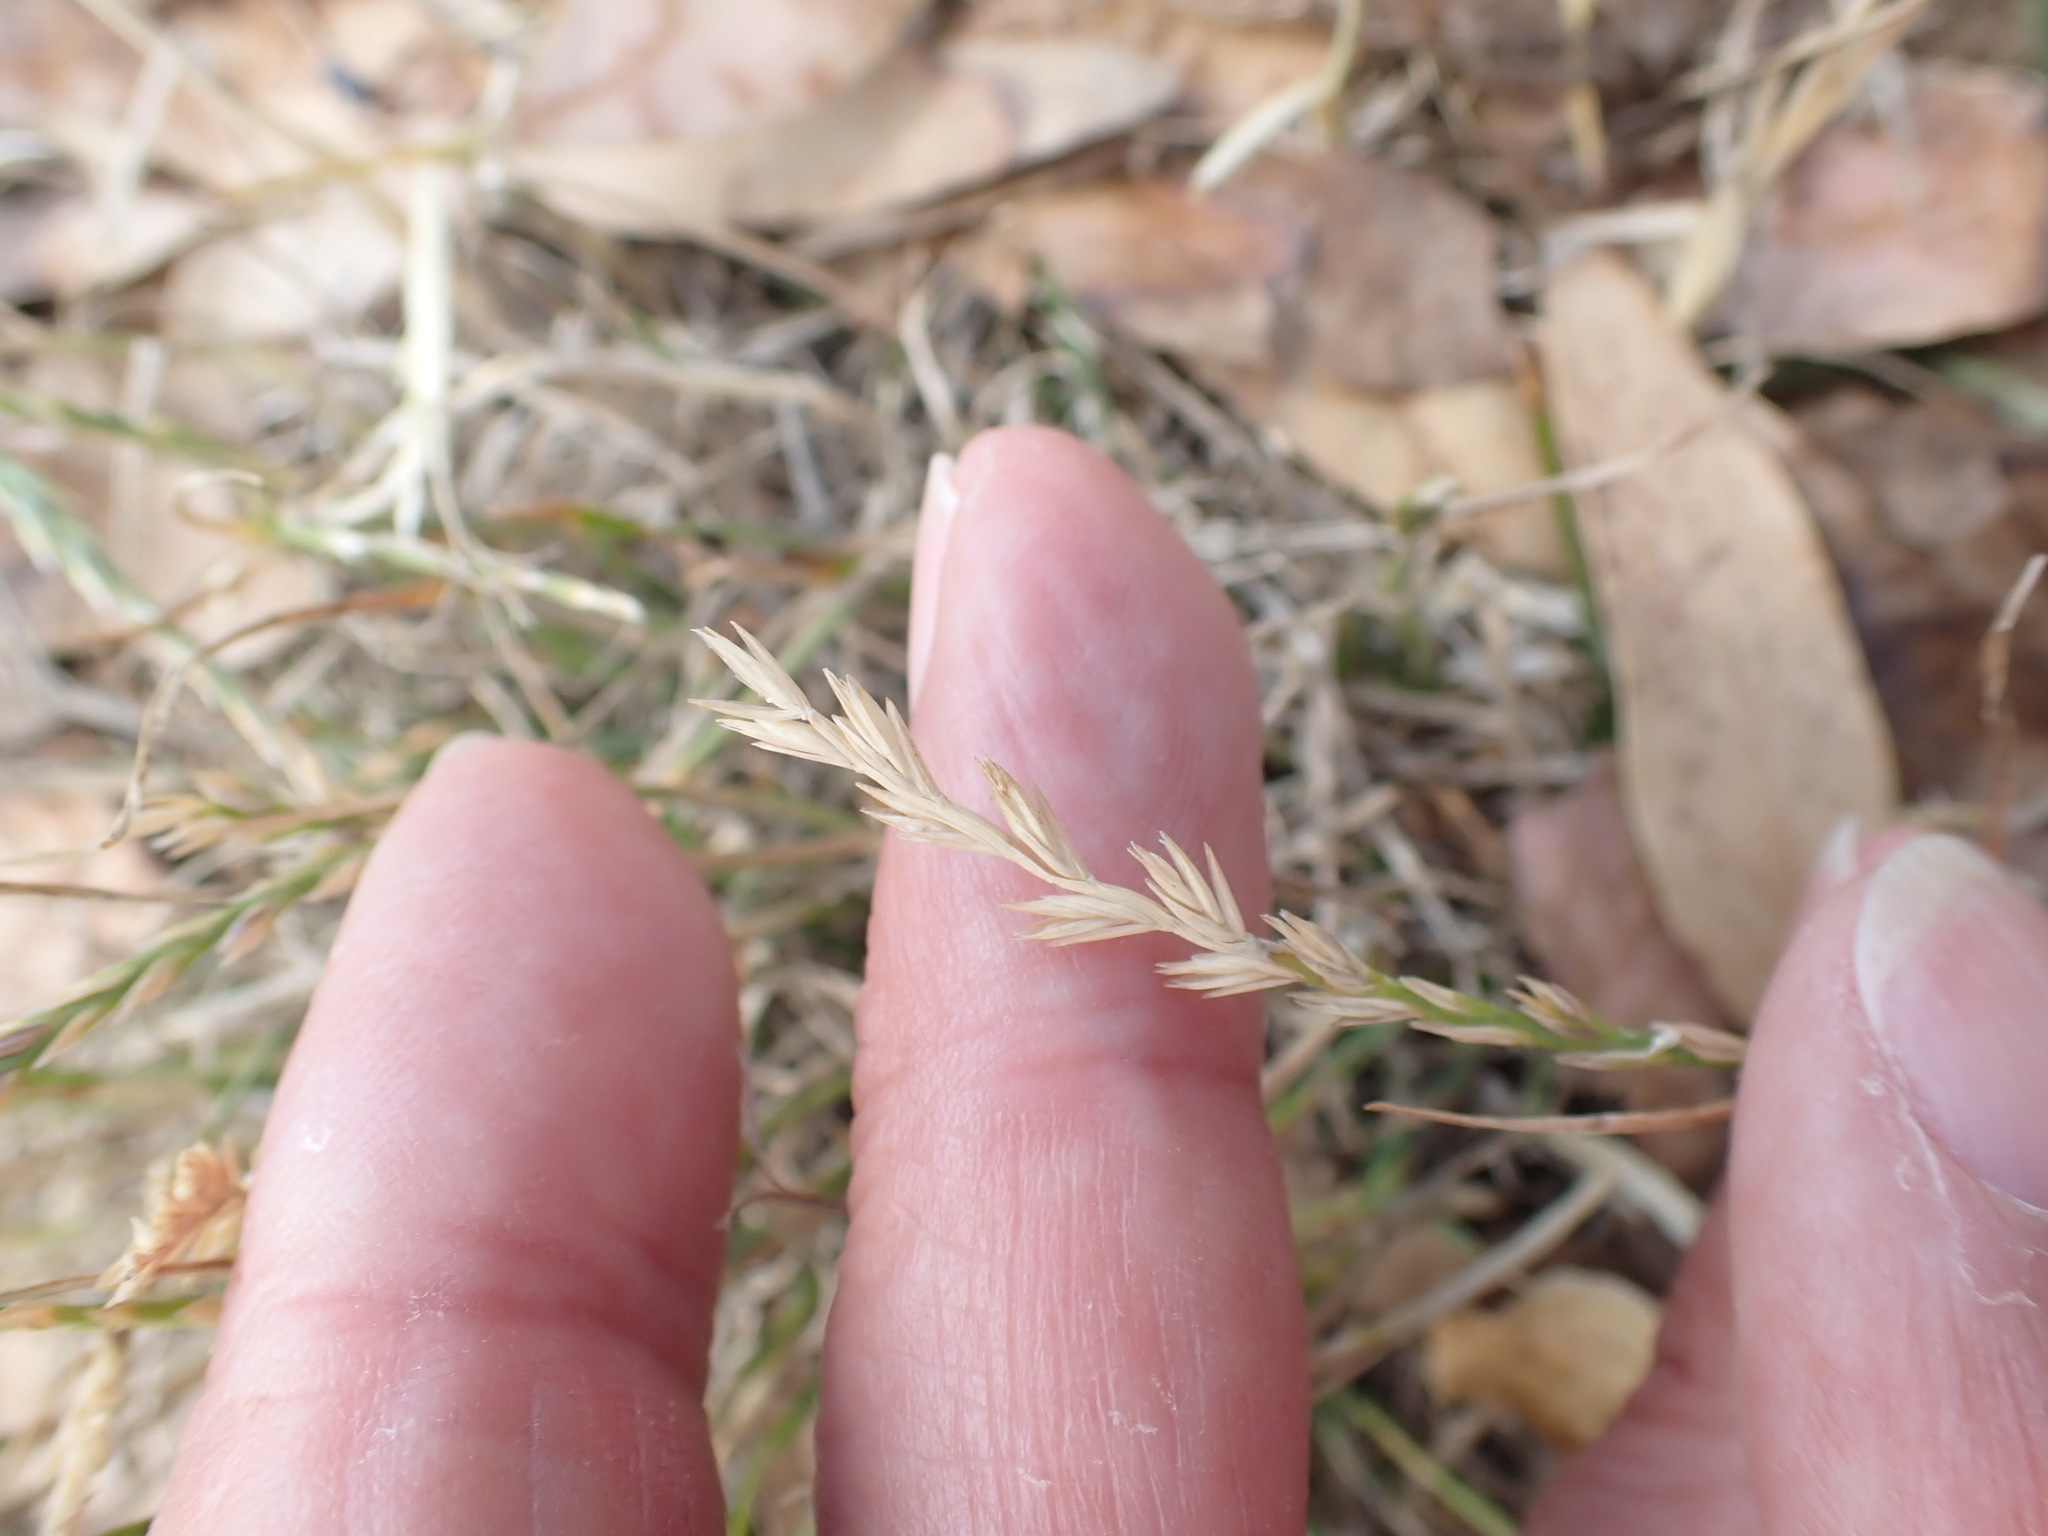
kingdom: Plantae
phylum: Tracheophyta
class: Liliopsida
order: Poales
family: Poaceae
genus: Lolium
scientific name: Lolium perenne
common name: Perennial ryegrass
